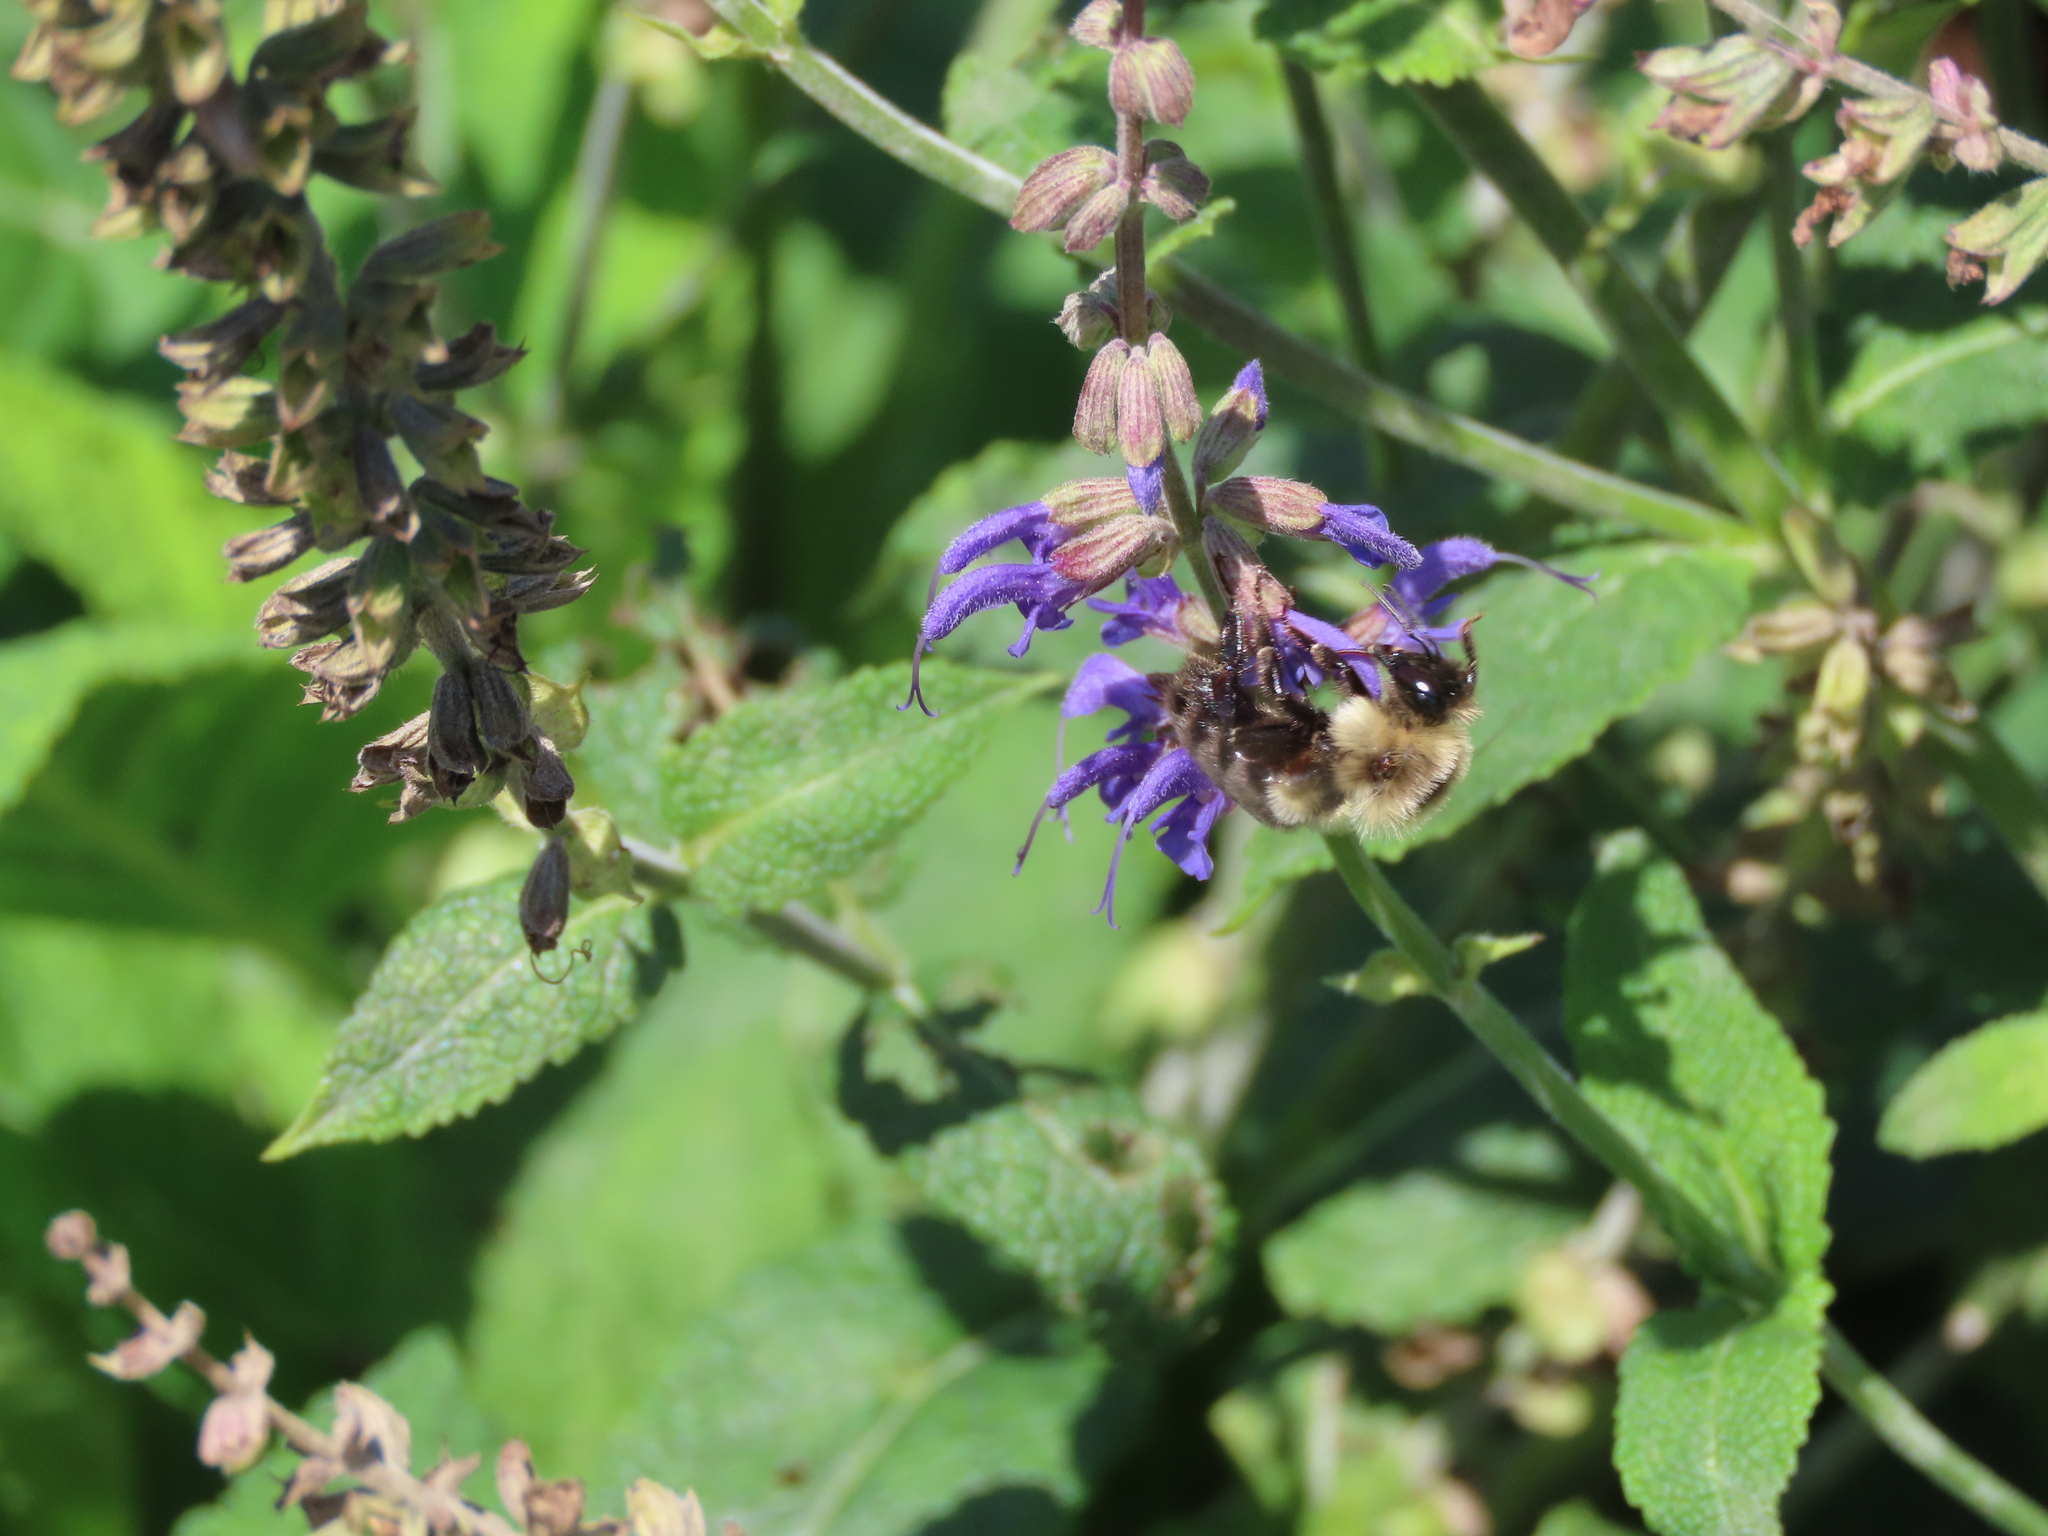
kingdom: Animalia
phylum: Arthropoda
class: Insecta
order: Hymenoptera
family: Apidae
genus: Bombus
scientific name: Bombus impatiens
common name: Common eastern bumble bee
